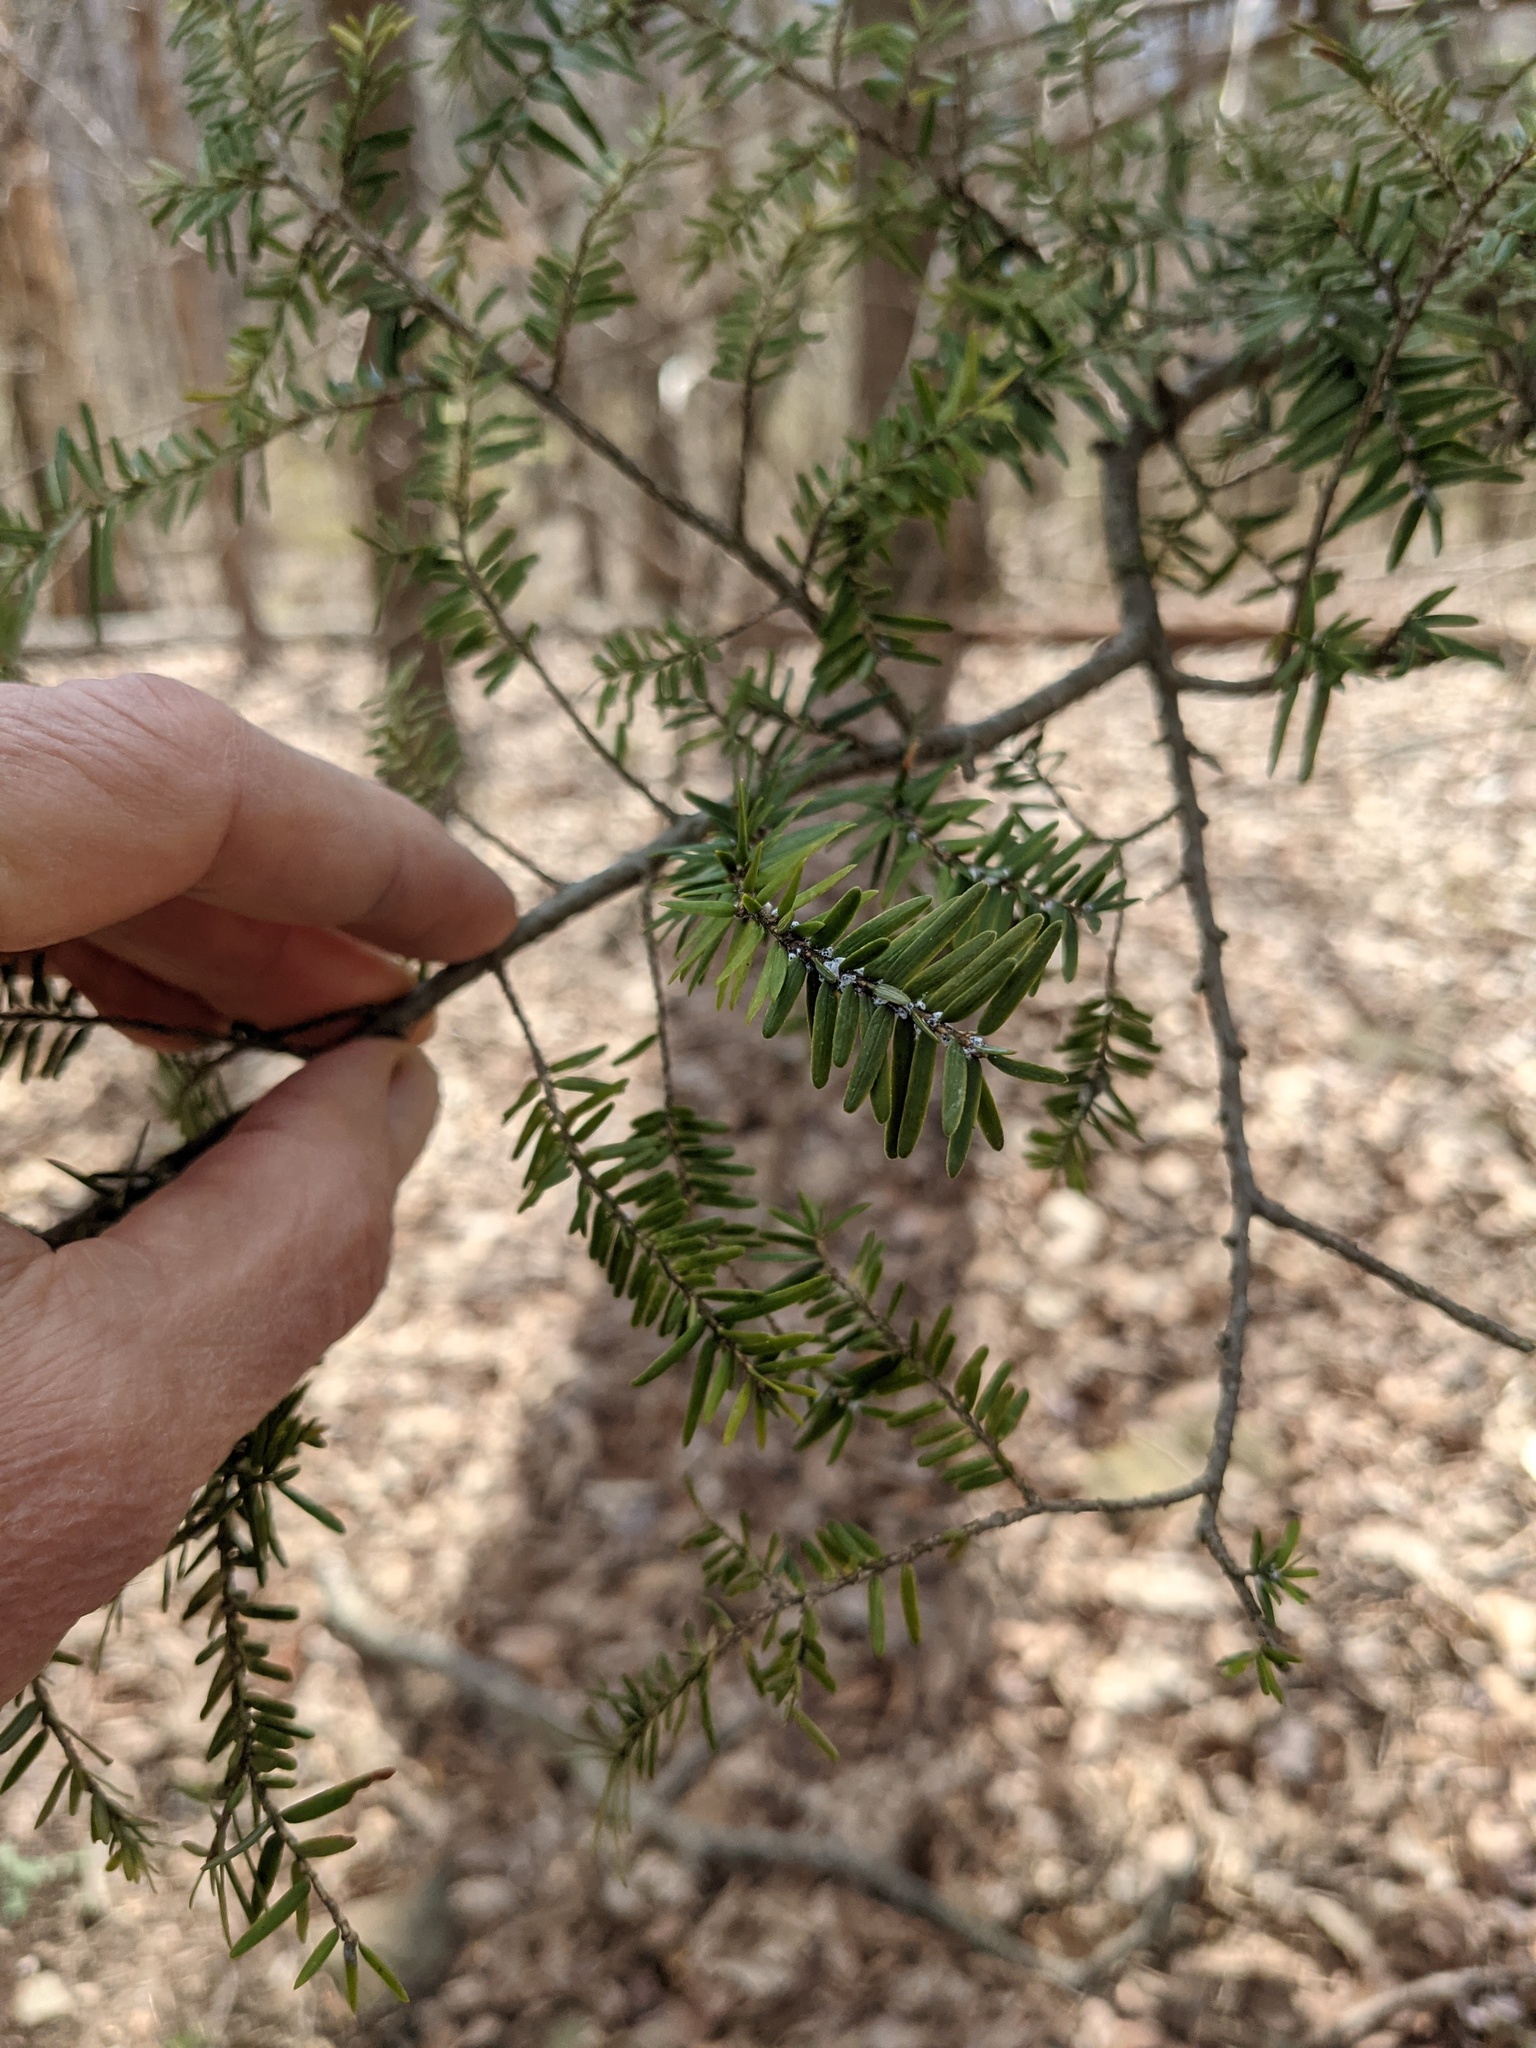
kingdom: Plantae
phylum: Tracheophyta
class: Pinopsida
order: Pinales
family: Pinaceae
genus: Tsuga
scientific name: Tsuga canadensis
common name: Eastern hemlock
